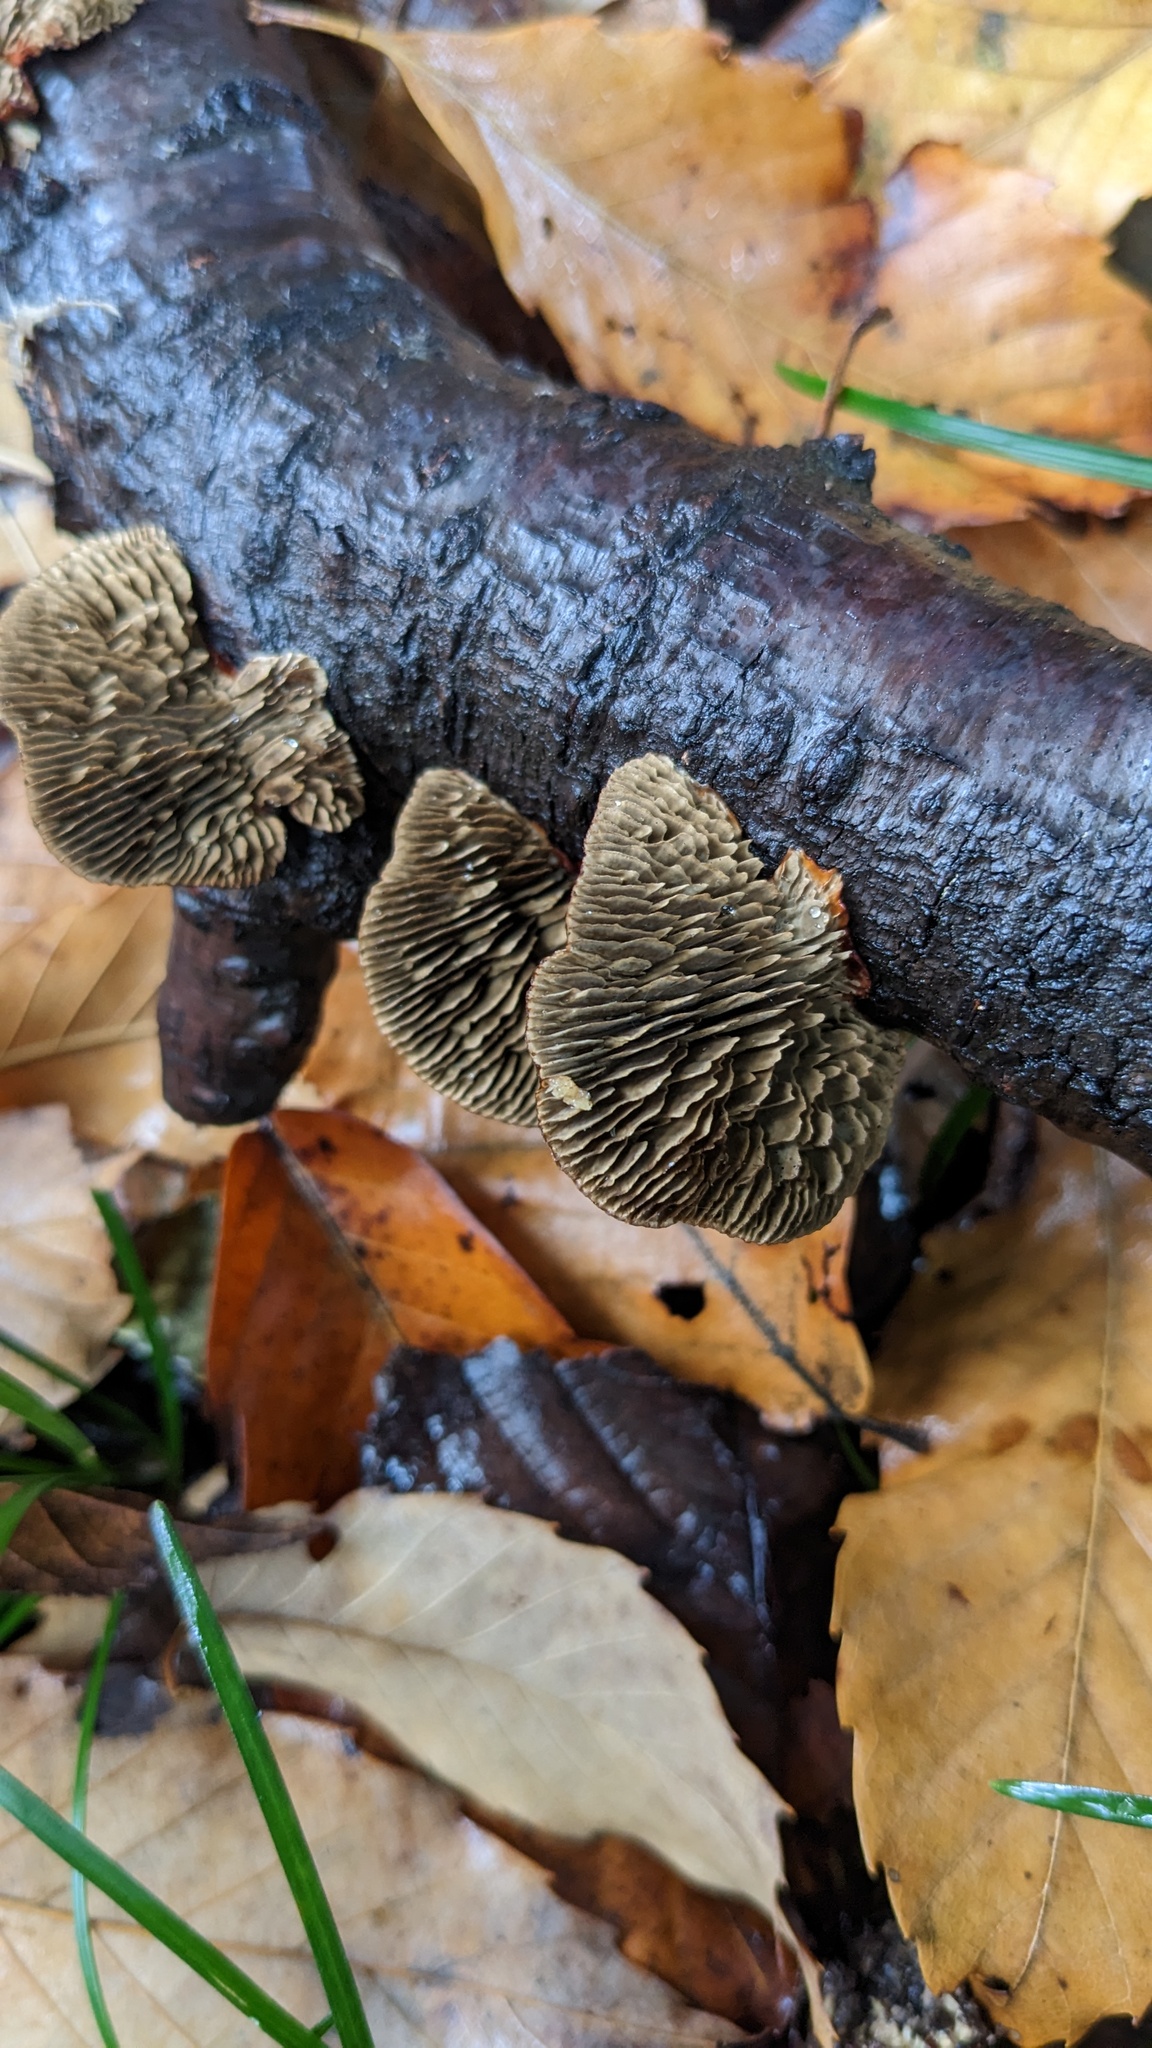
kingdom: Fungi
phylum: Basidiomycota
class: Agaricomycetes
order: Polyporales
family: Polyporaceae
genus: Daedaleopsis
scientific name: Daedaleopsis tricolor
